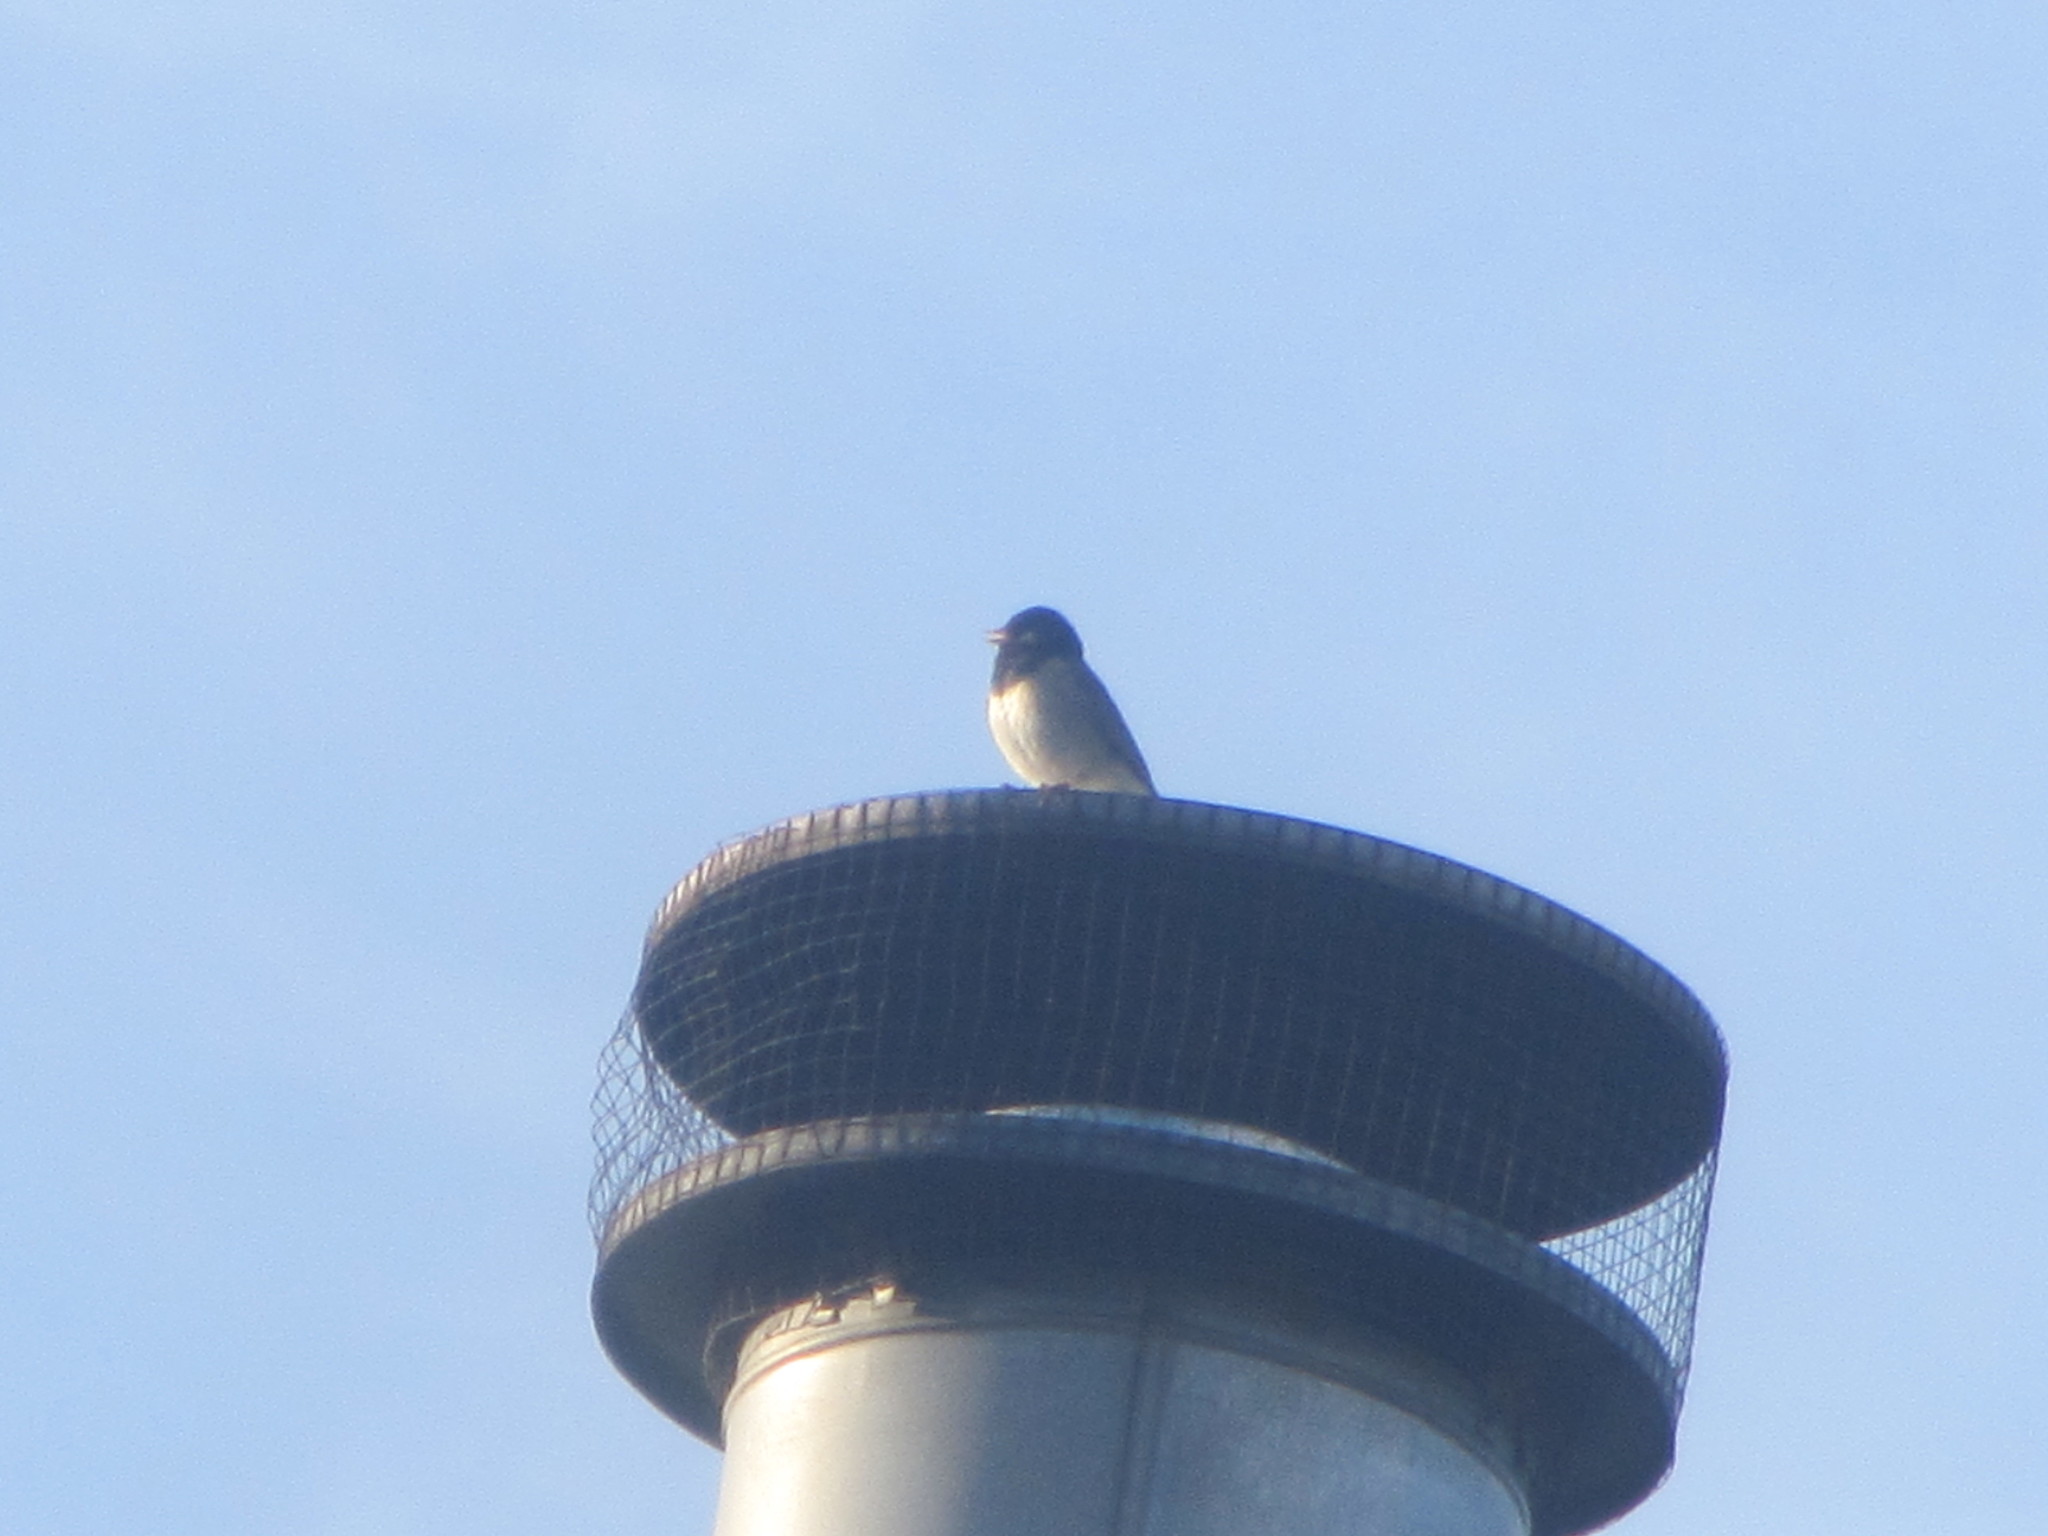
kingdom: Animalia
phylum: Chordata
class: Aves
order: Passeriformes
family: Passerellidae
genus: Junco
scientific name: Junco hyemalis
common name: Dark-eyed junco
